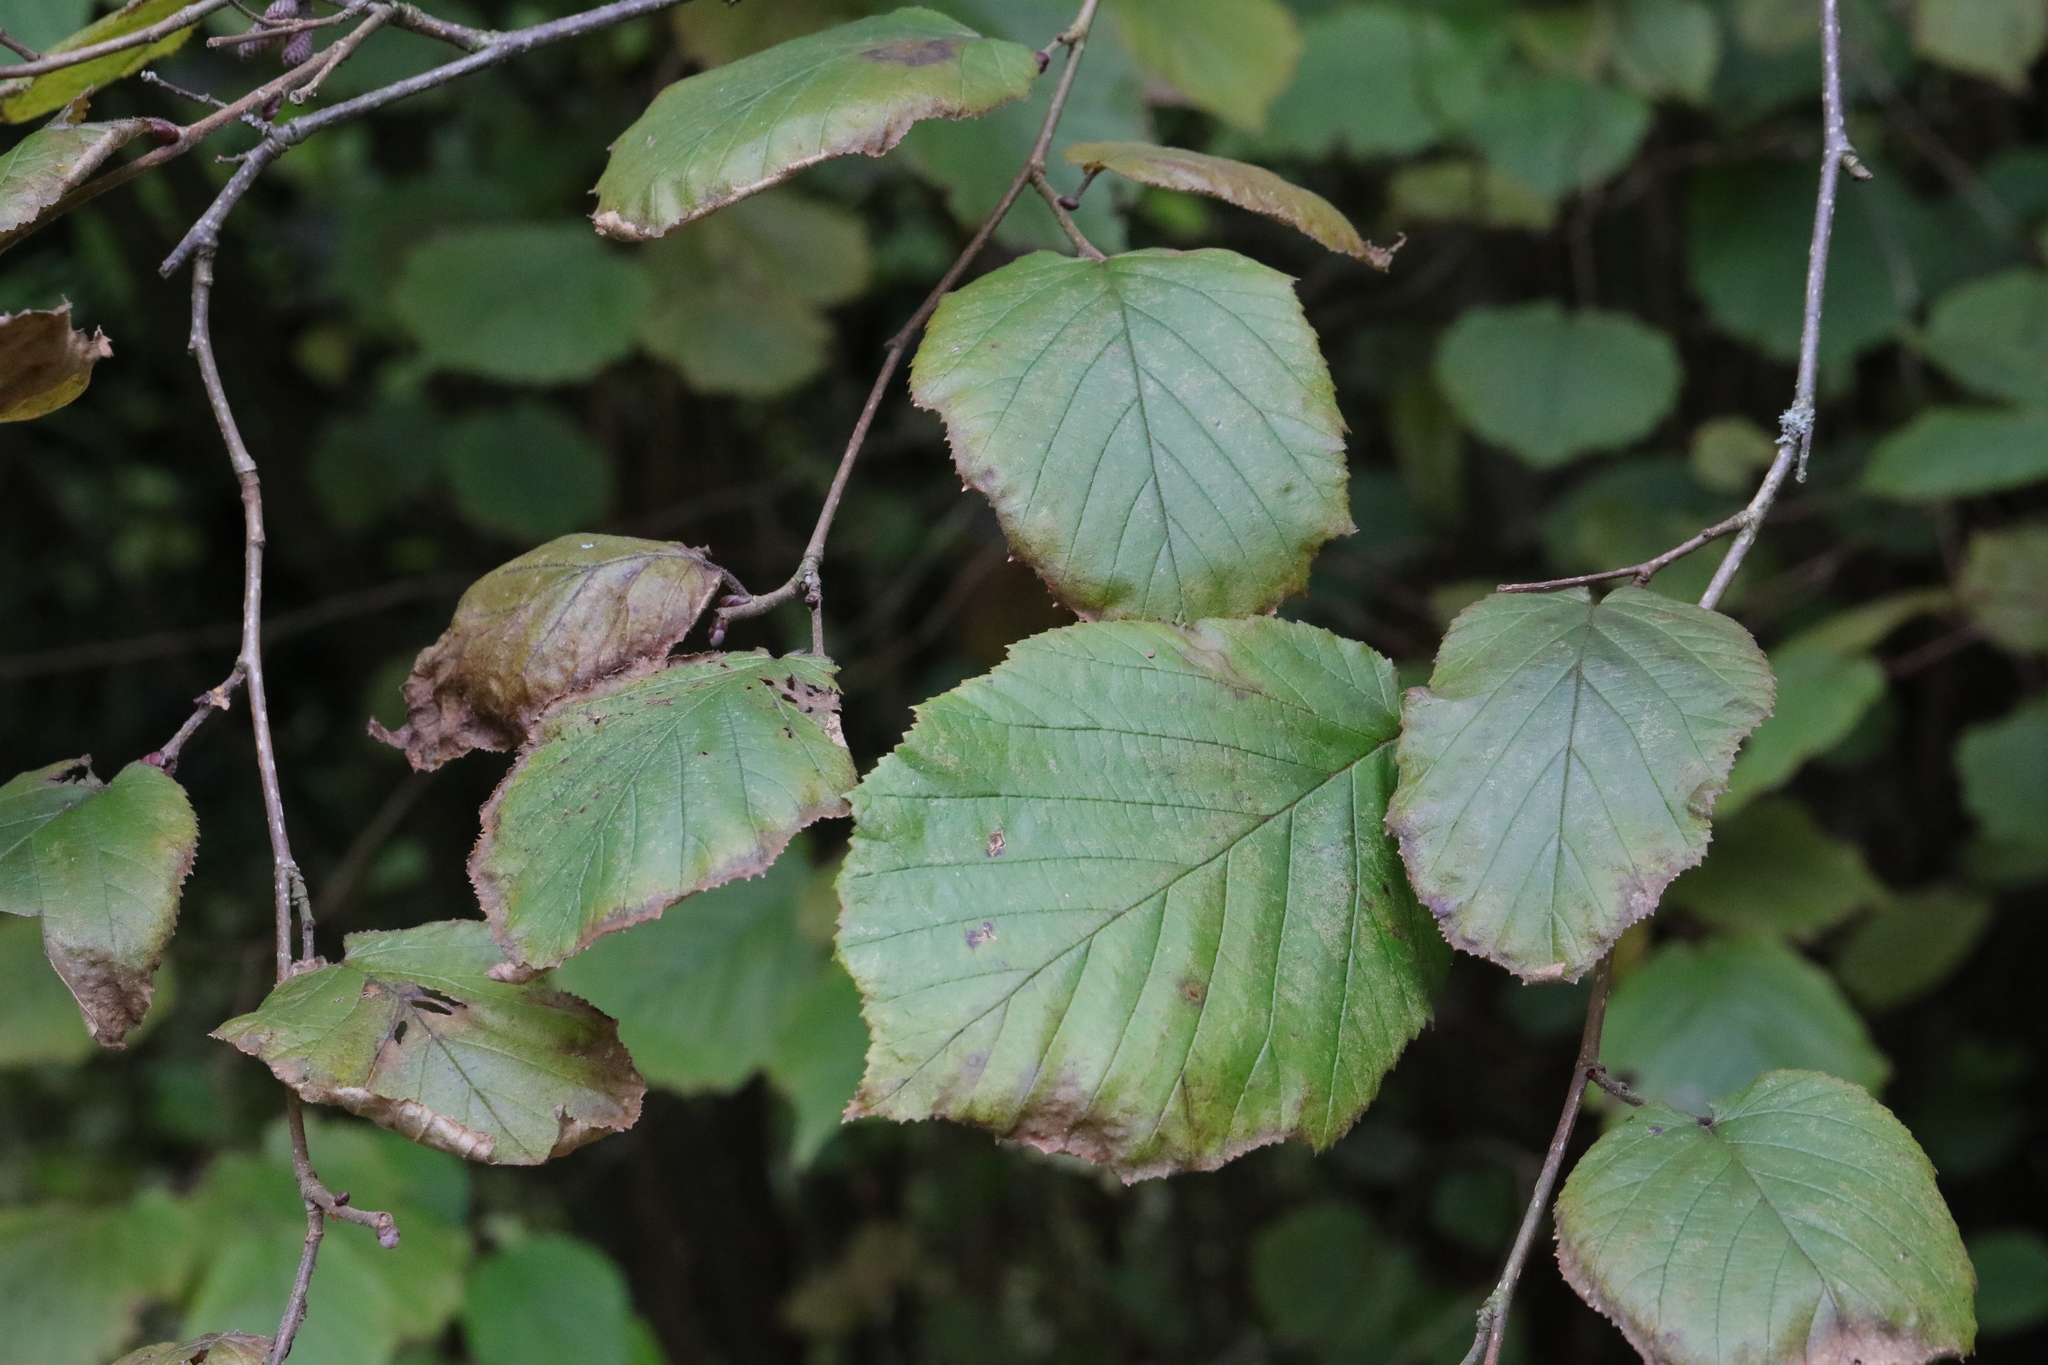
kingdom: Plantae
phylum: Tracheophyta
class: Magnoliopsida
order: Fagales
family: Betulaceae
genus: Corylus
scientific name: Corylus avellana
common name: European hazel
